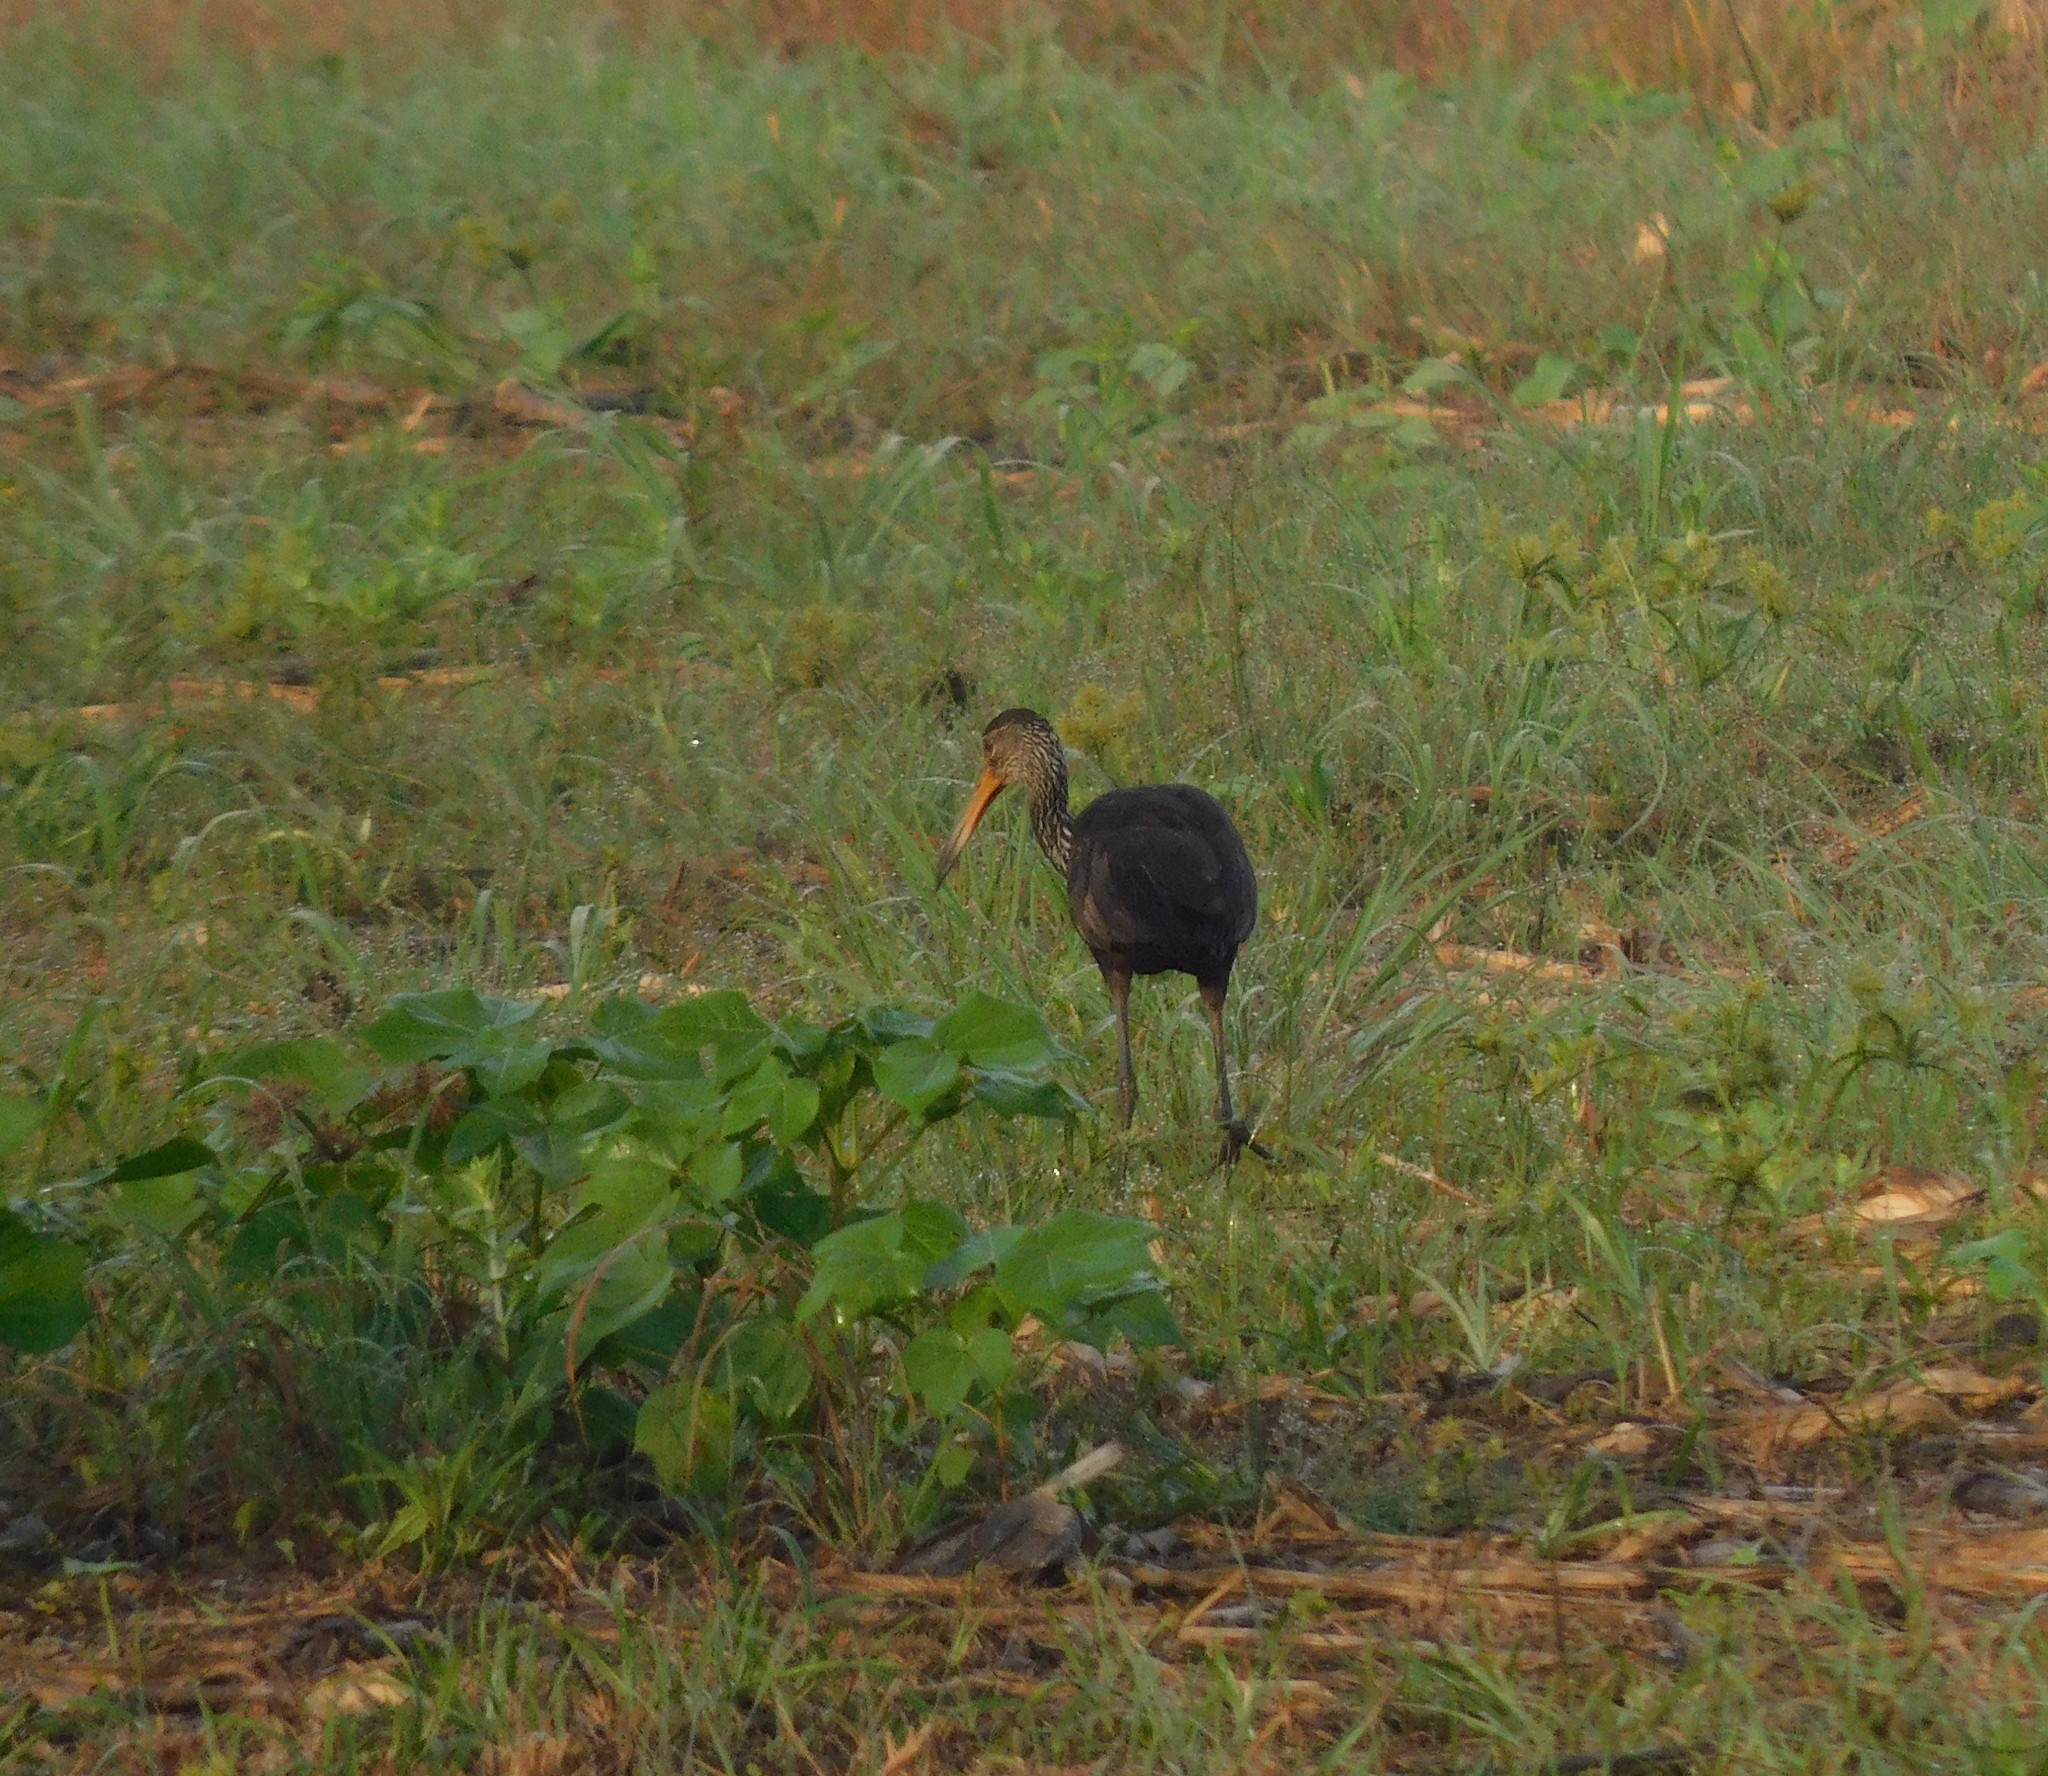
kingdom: Animalia
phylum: Chordata
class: Aves
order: Gruiformes
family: Aramidae
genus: Aramus
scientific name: Aramus guarauna
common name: Limpkin
